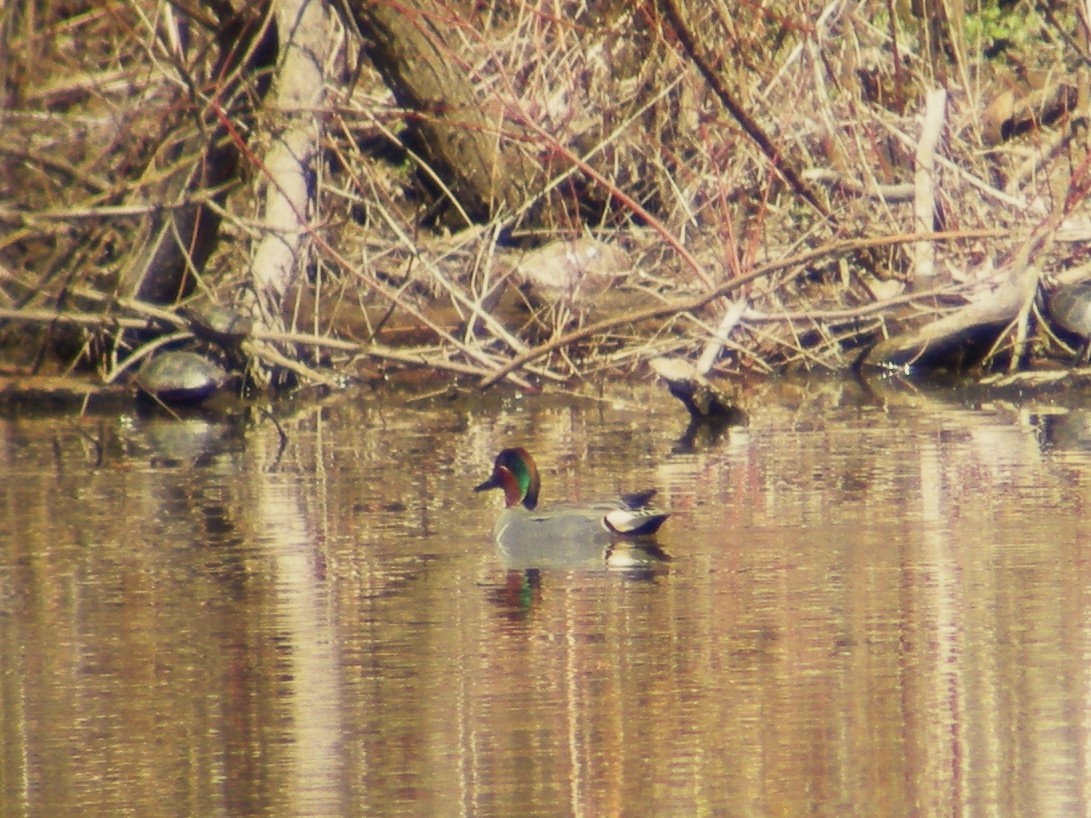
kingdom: Animalia
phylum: Chordata
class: Aves
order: Anseriformes
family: Anatidae
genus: Anas
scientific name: Anas crecca
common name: Eurasian teal
